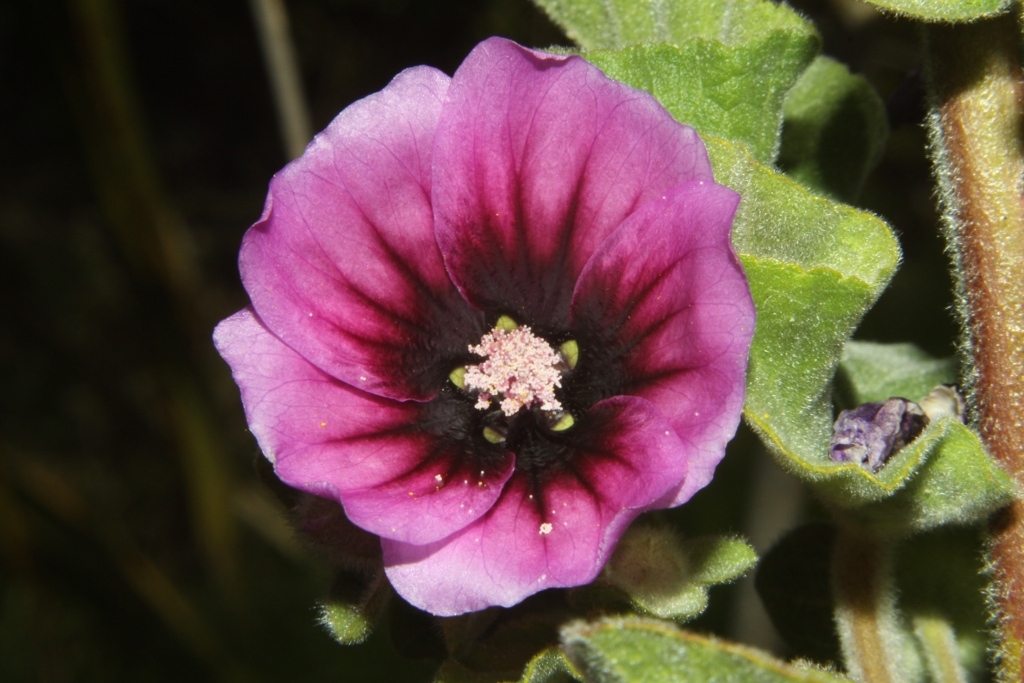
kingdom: Plantae
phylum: Tracheophyta
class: Magnoliopsida
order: Malvales
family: Malvaceae
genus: Malva
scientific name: Malva arborea
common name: Tree mallow
